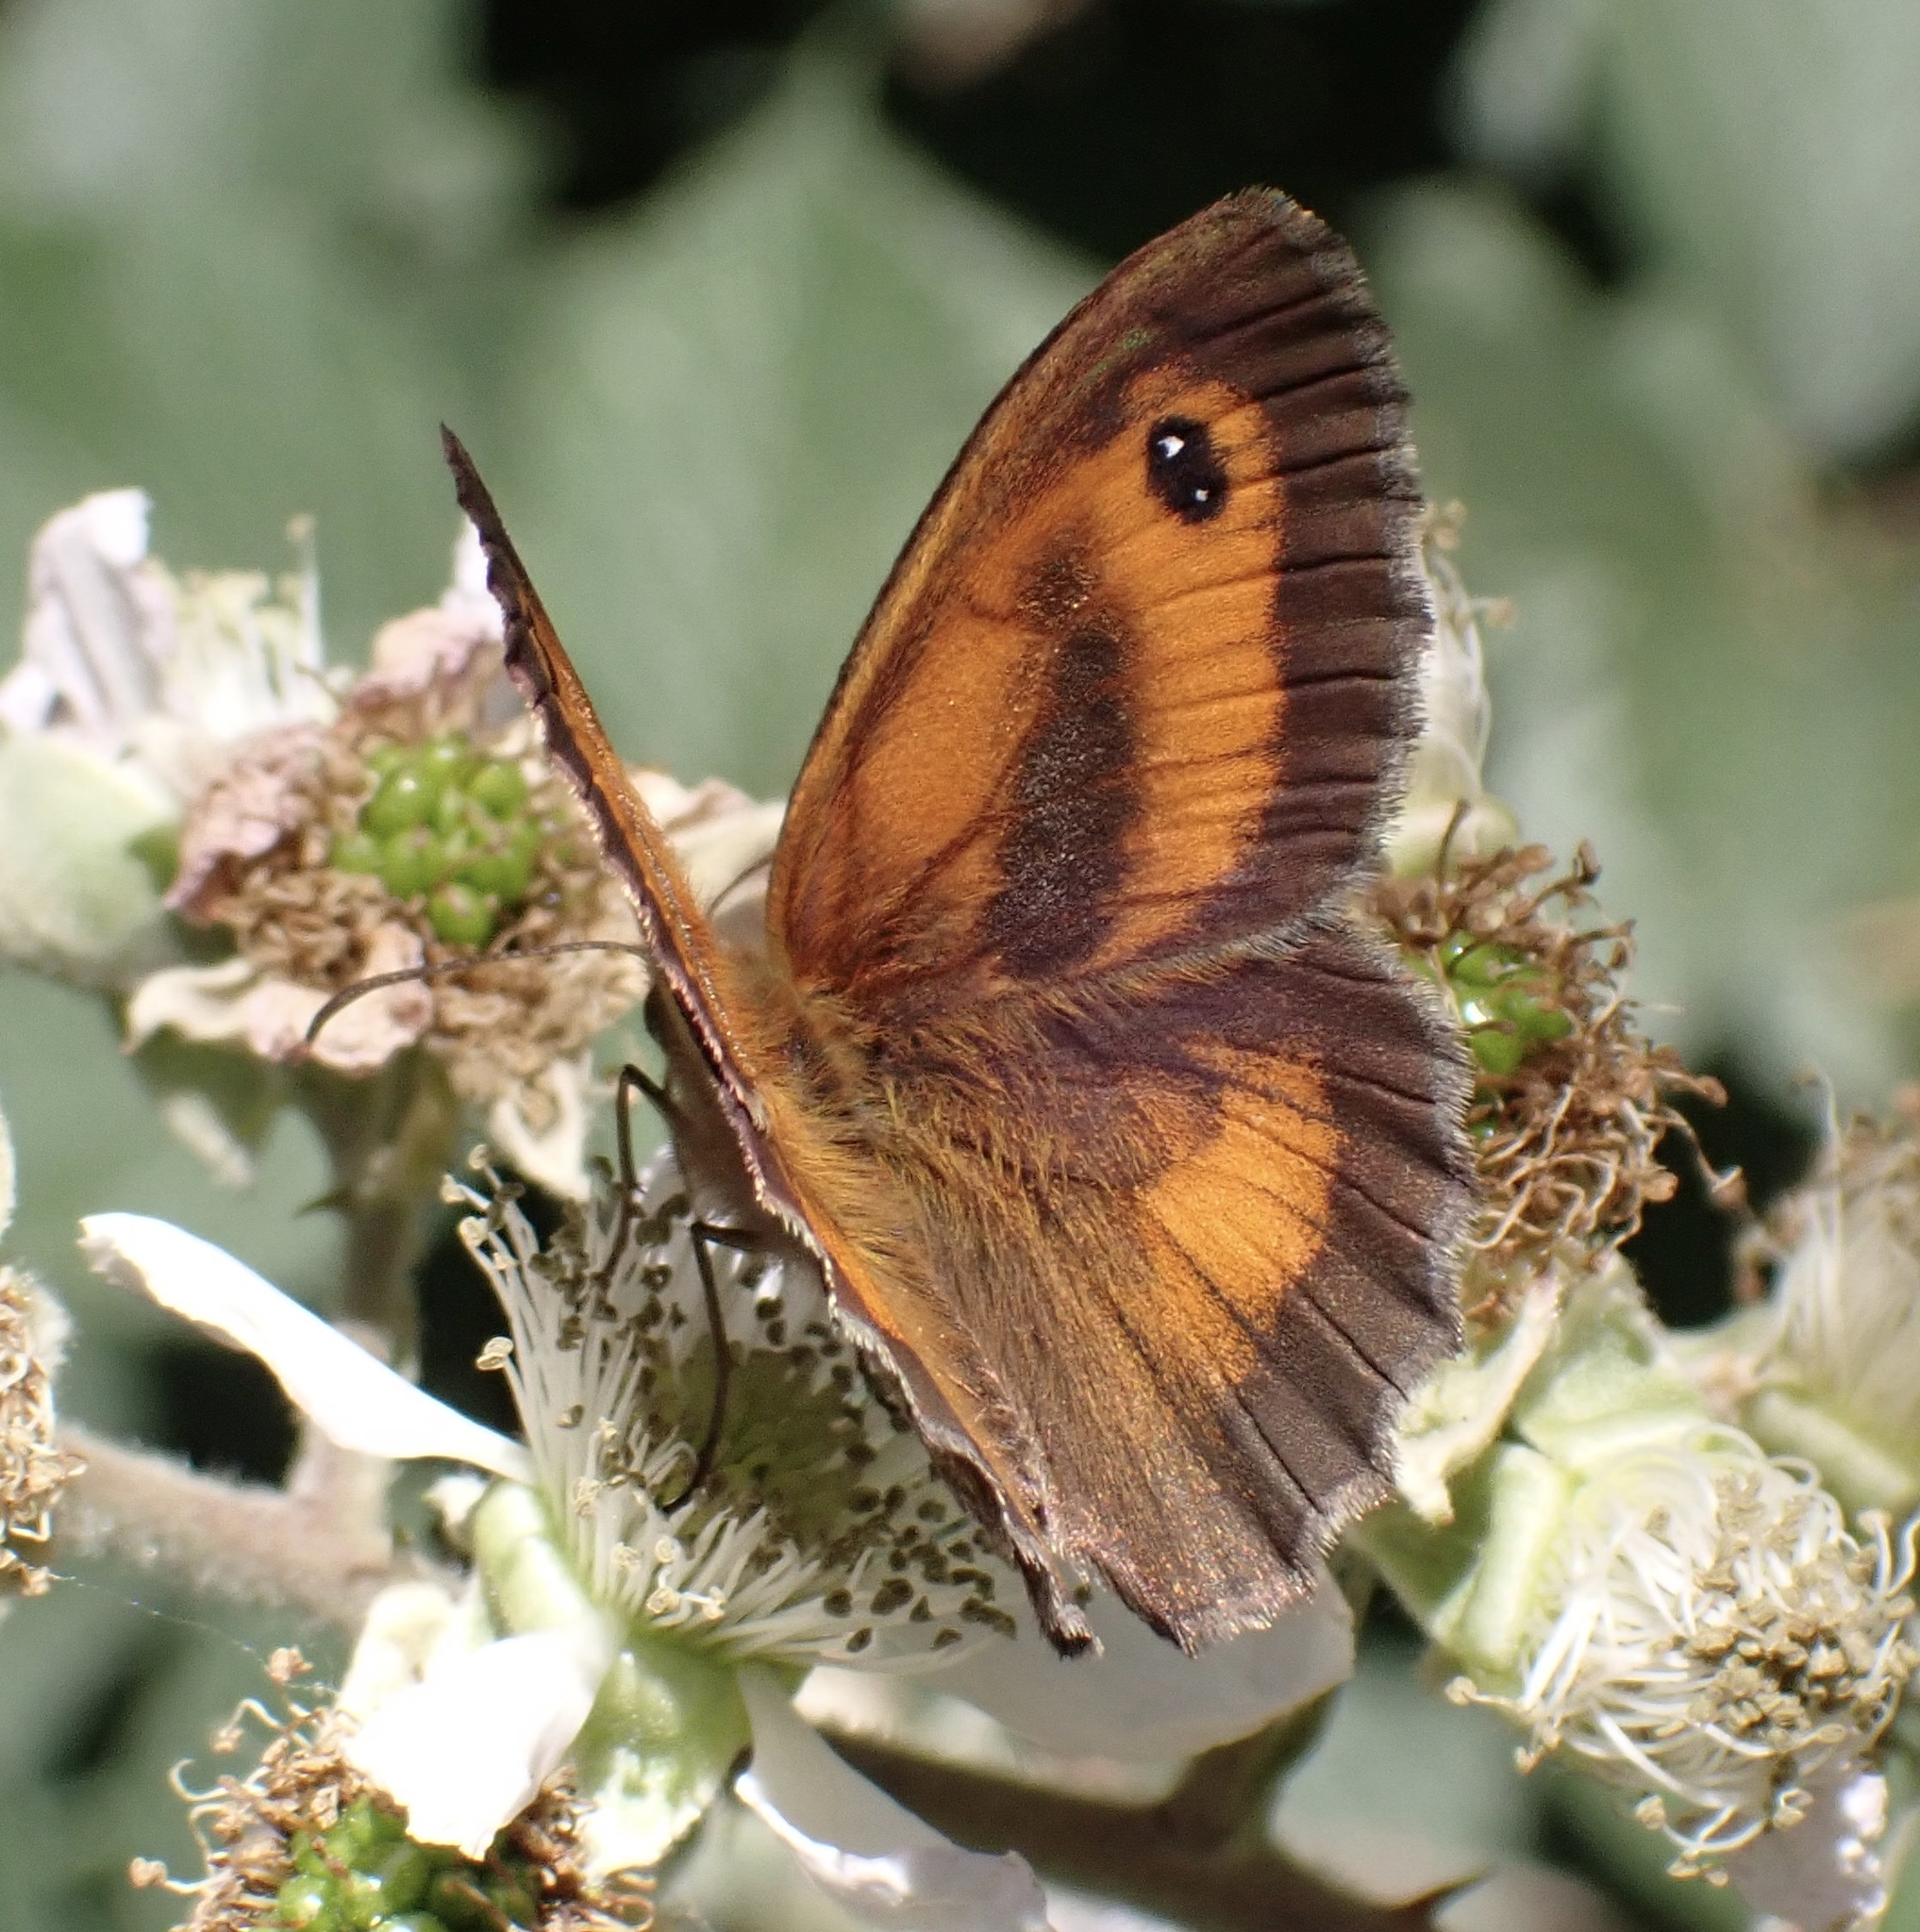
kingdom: Animalia
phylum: Arthropoda
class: Insecta
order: Lepidoptera
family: Nymphalidae
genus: Pyronia
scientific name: Pyronia tithonus
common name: Gatekeeper
